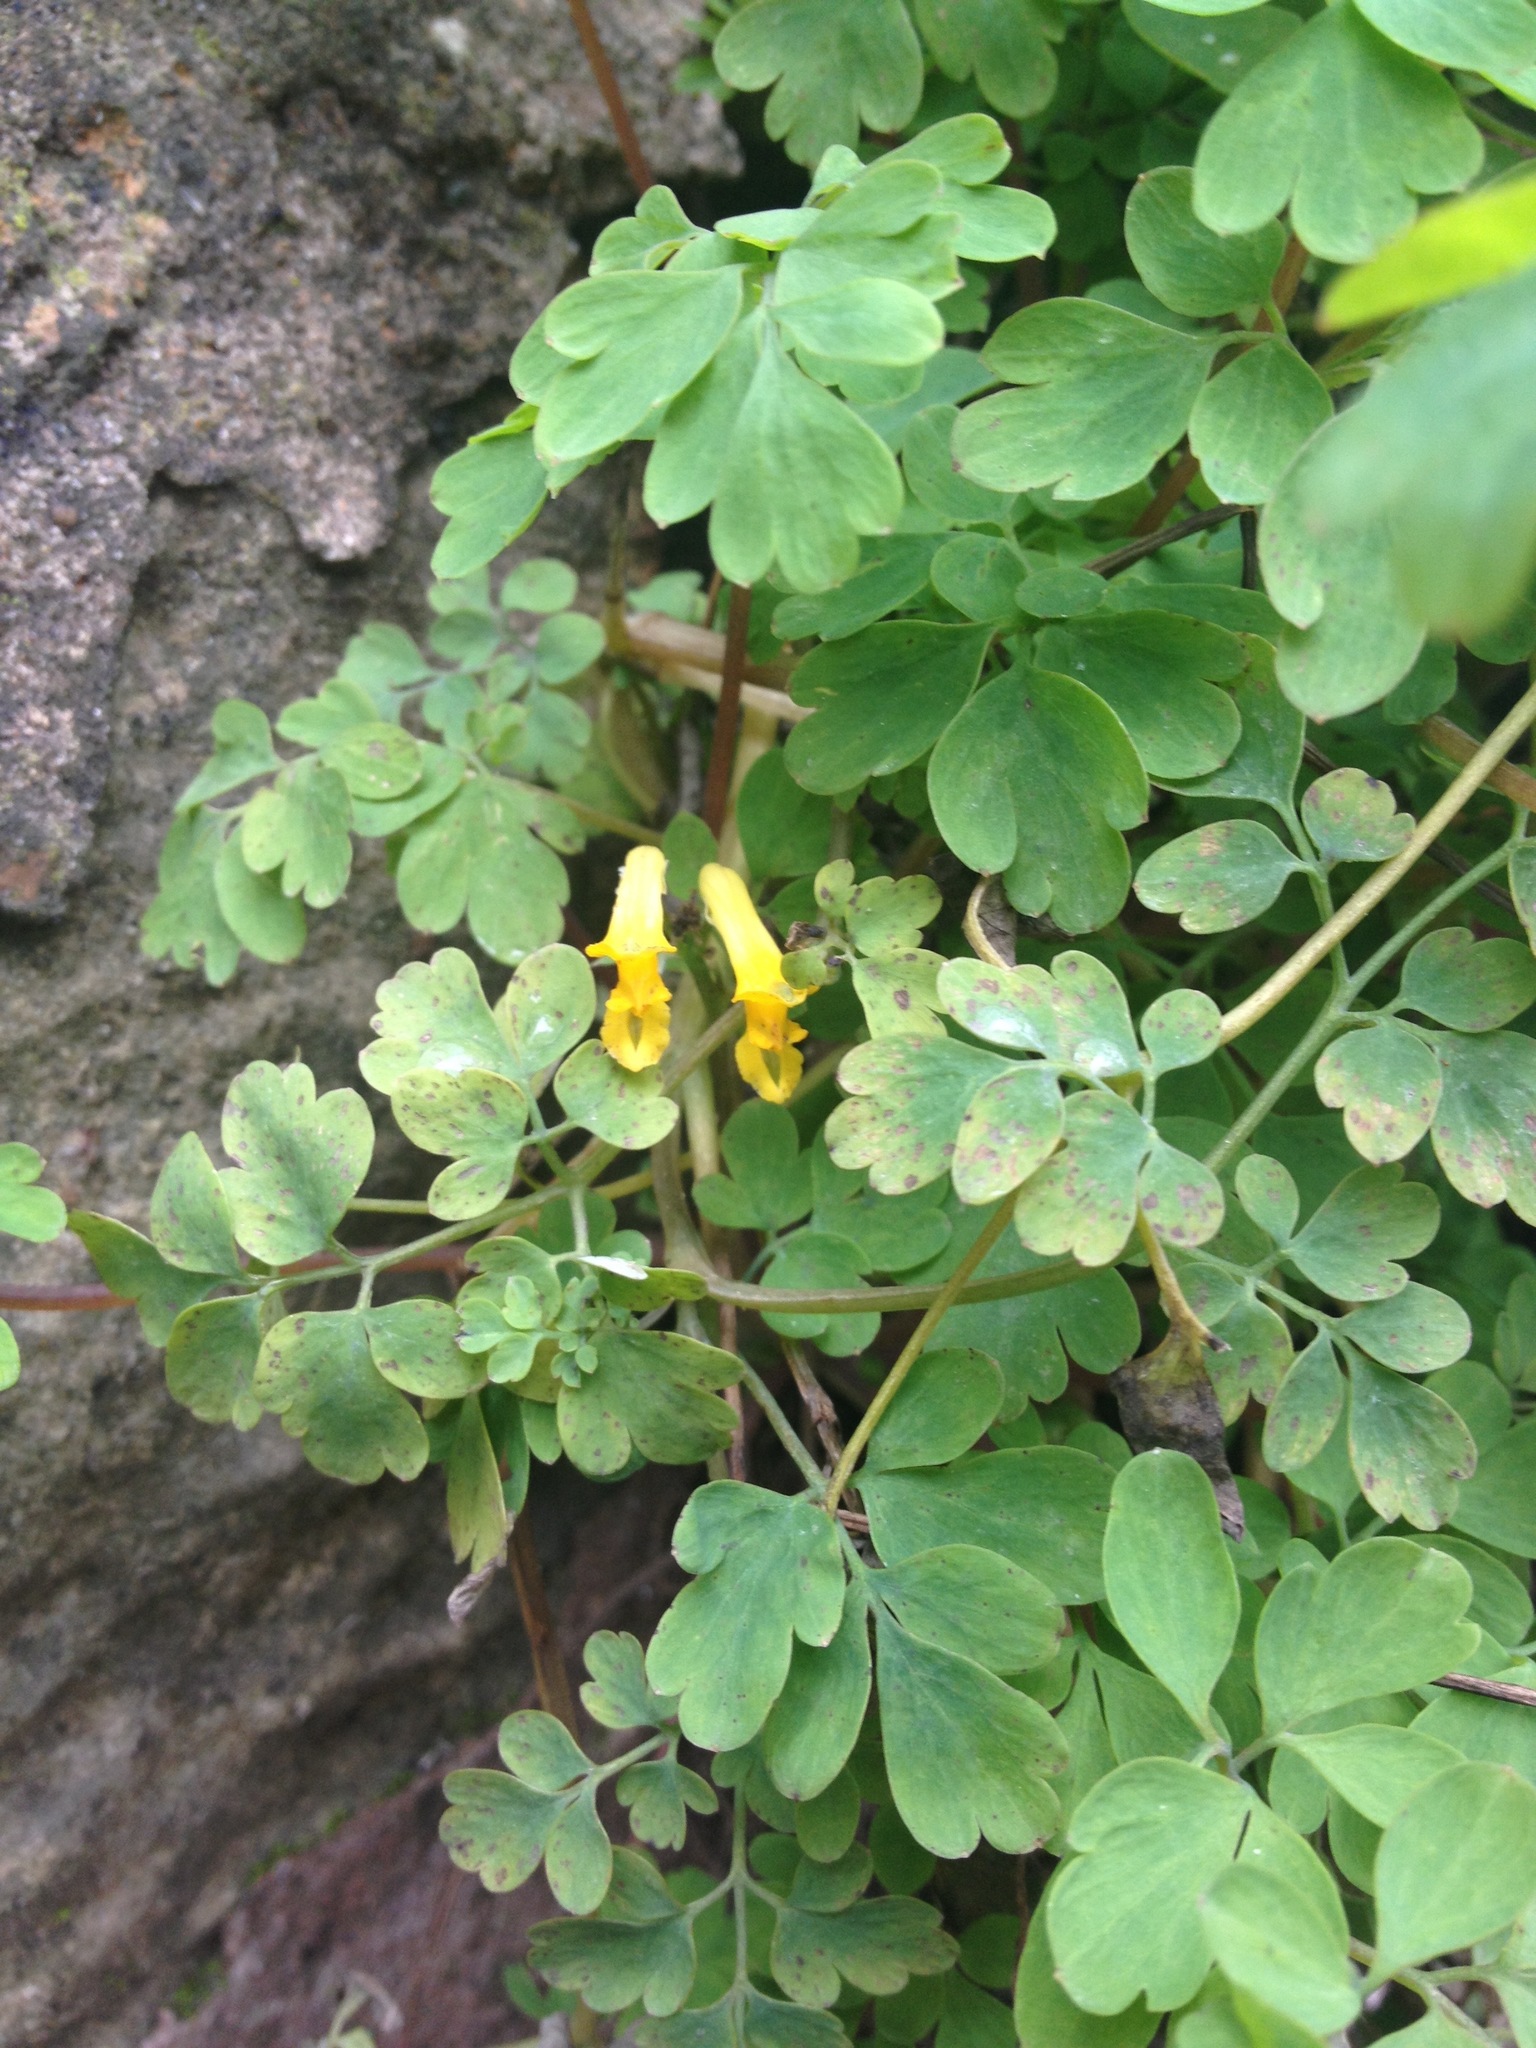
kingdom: Plantae
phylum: Tracheophyta
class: Magnoliopsida
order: Ranunculales
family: Papaveraceae
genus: Pseudofumaria
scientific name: Pseudofumaria lutea
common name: Yellow corydalis
